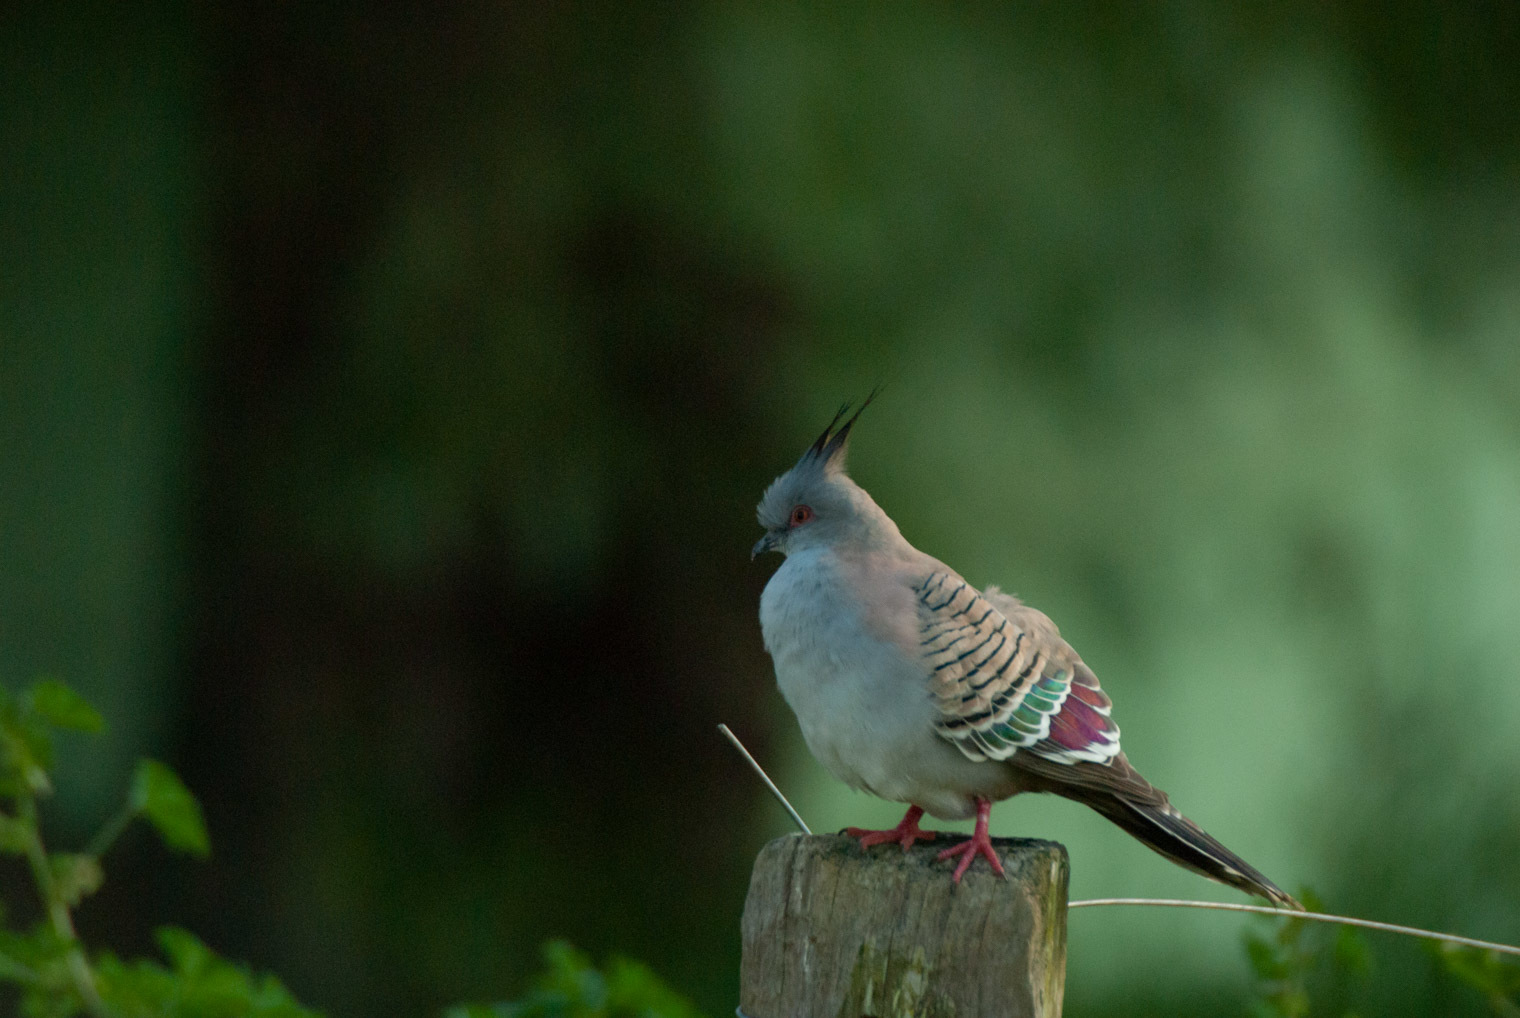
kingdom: Animalia
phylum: Chordata
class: Aves
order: Columbiformes
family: Columbidae
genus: Ocyphaps
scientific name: Ocyphaps lophotes
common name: Crested pigeon
